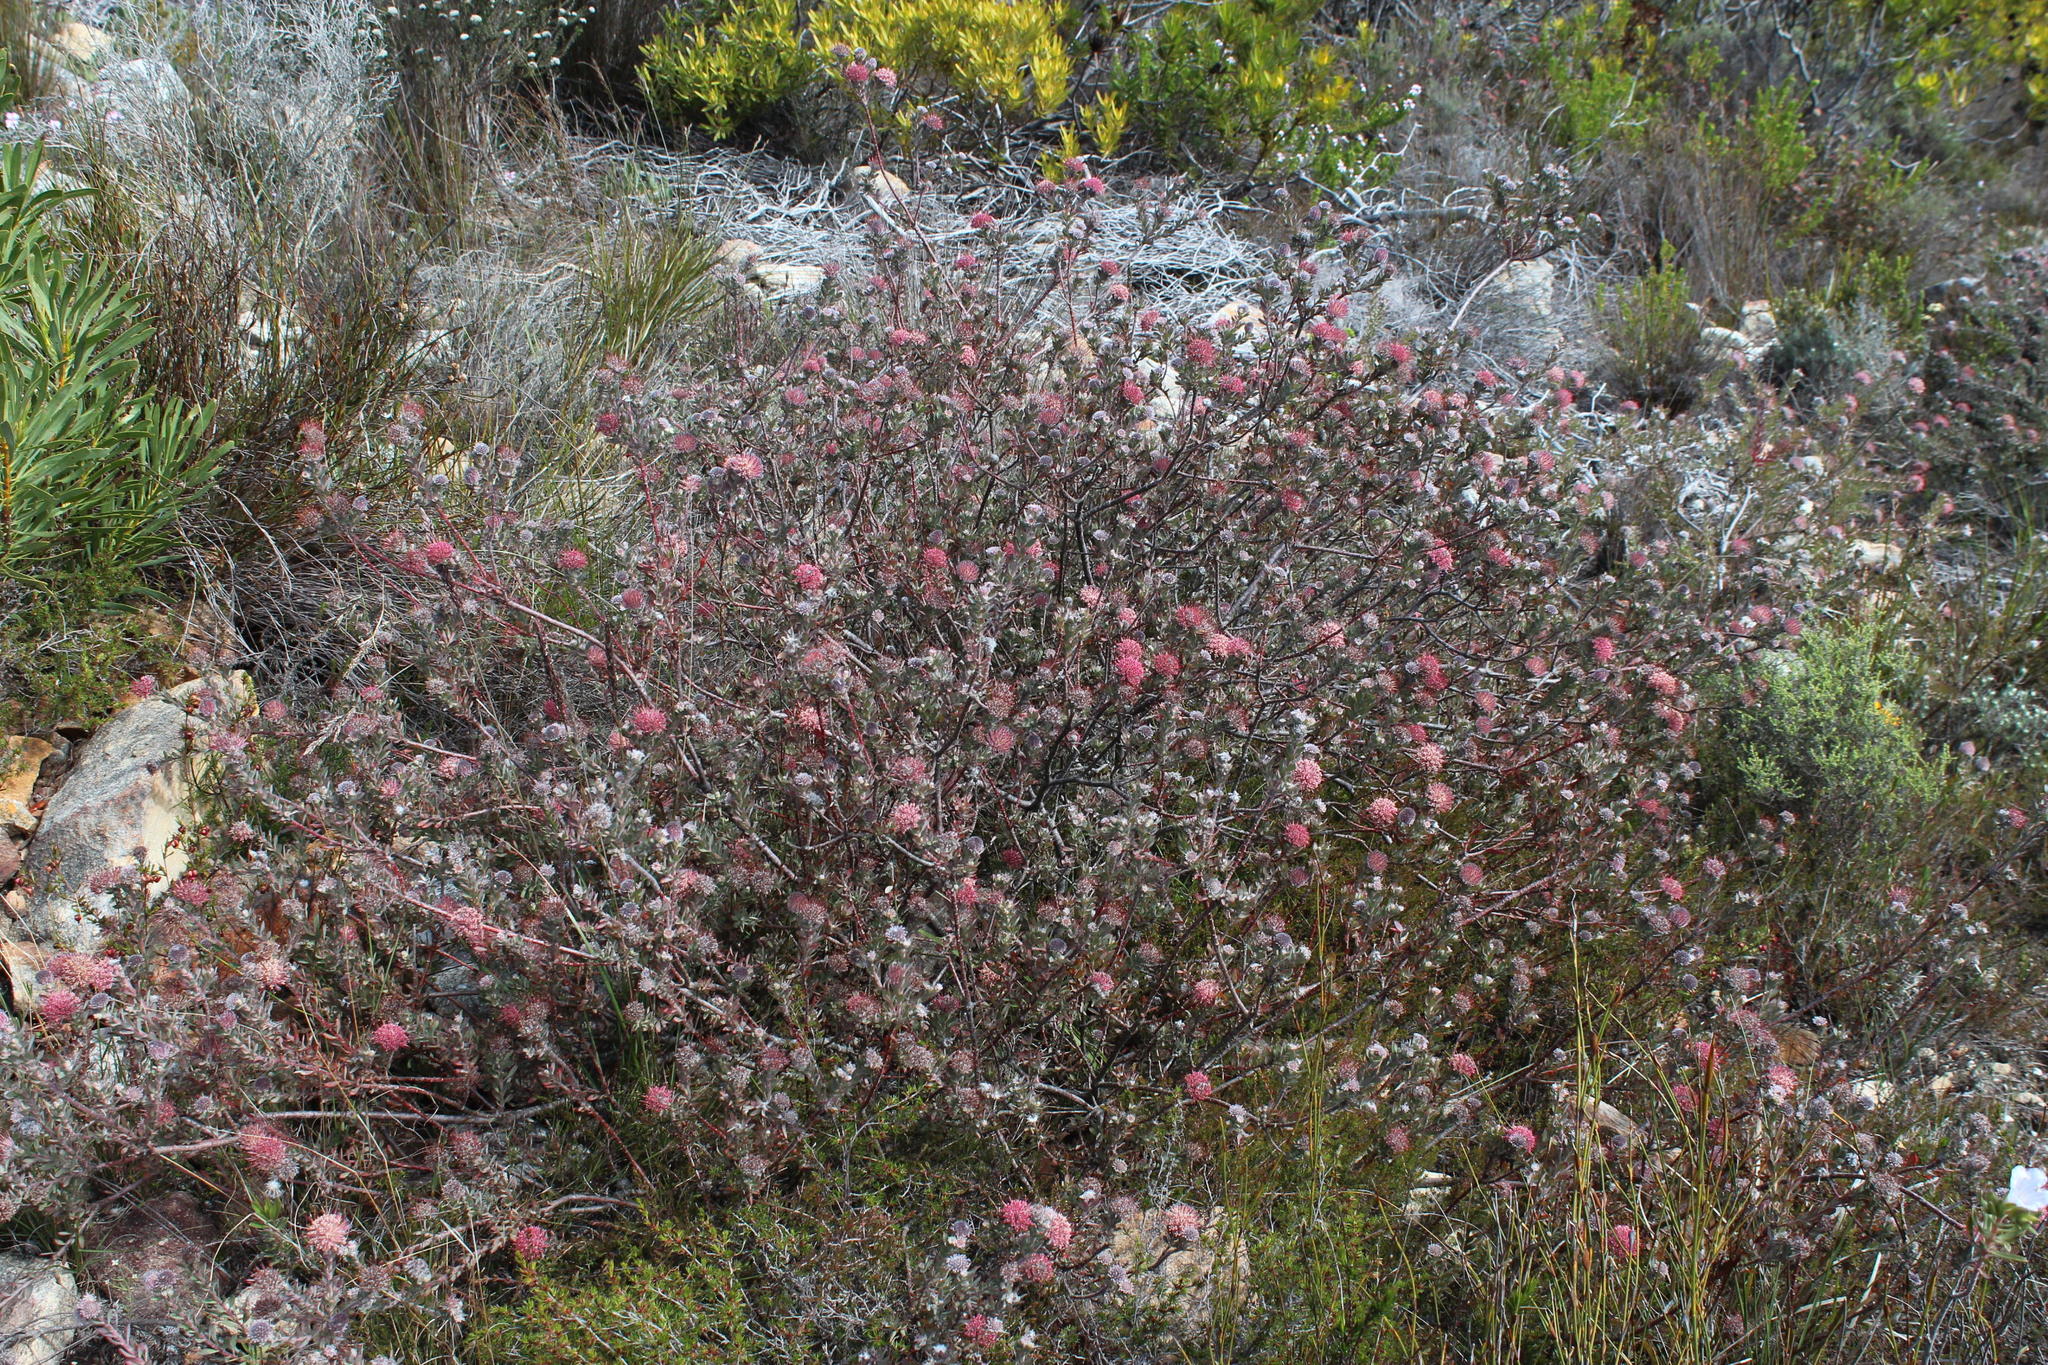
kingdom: Plantae
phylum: Tracheophyta
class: Magnoliopsida
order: Proteales
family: Proteaceae
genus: Leucospermum
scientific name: Leucospermum calligerum
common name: Arid pincushion
